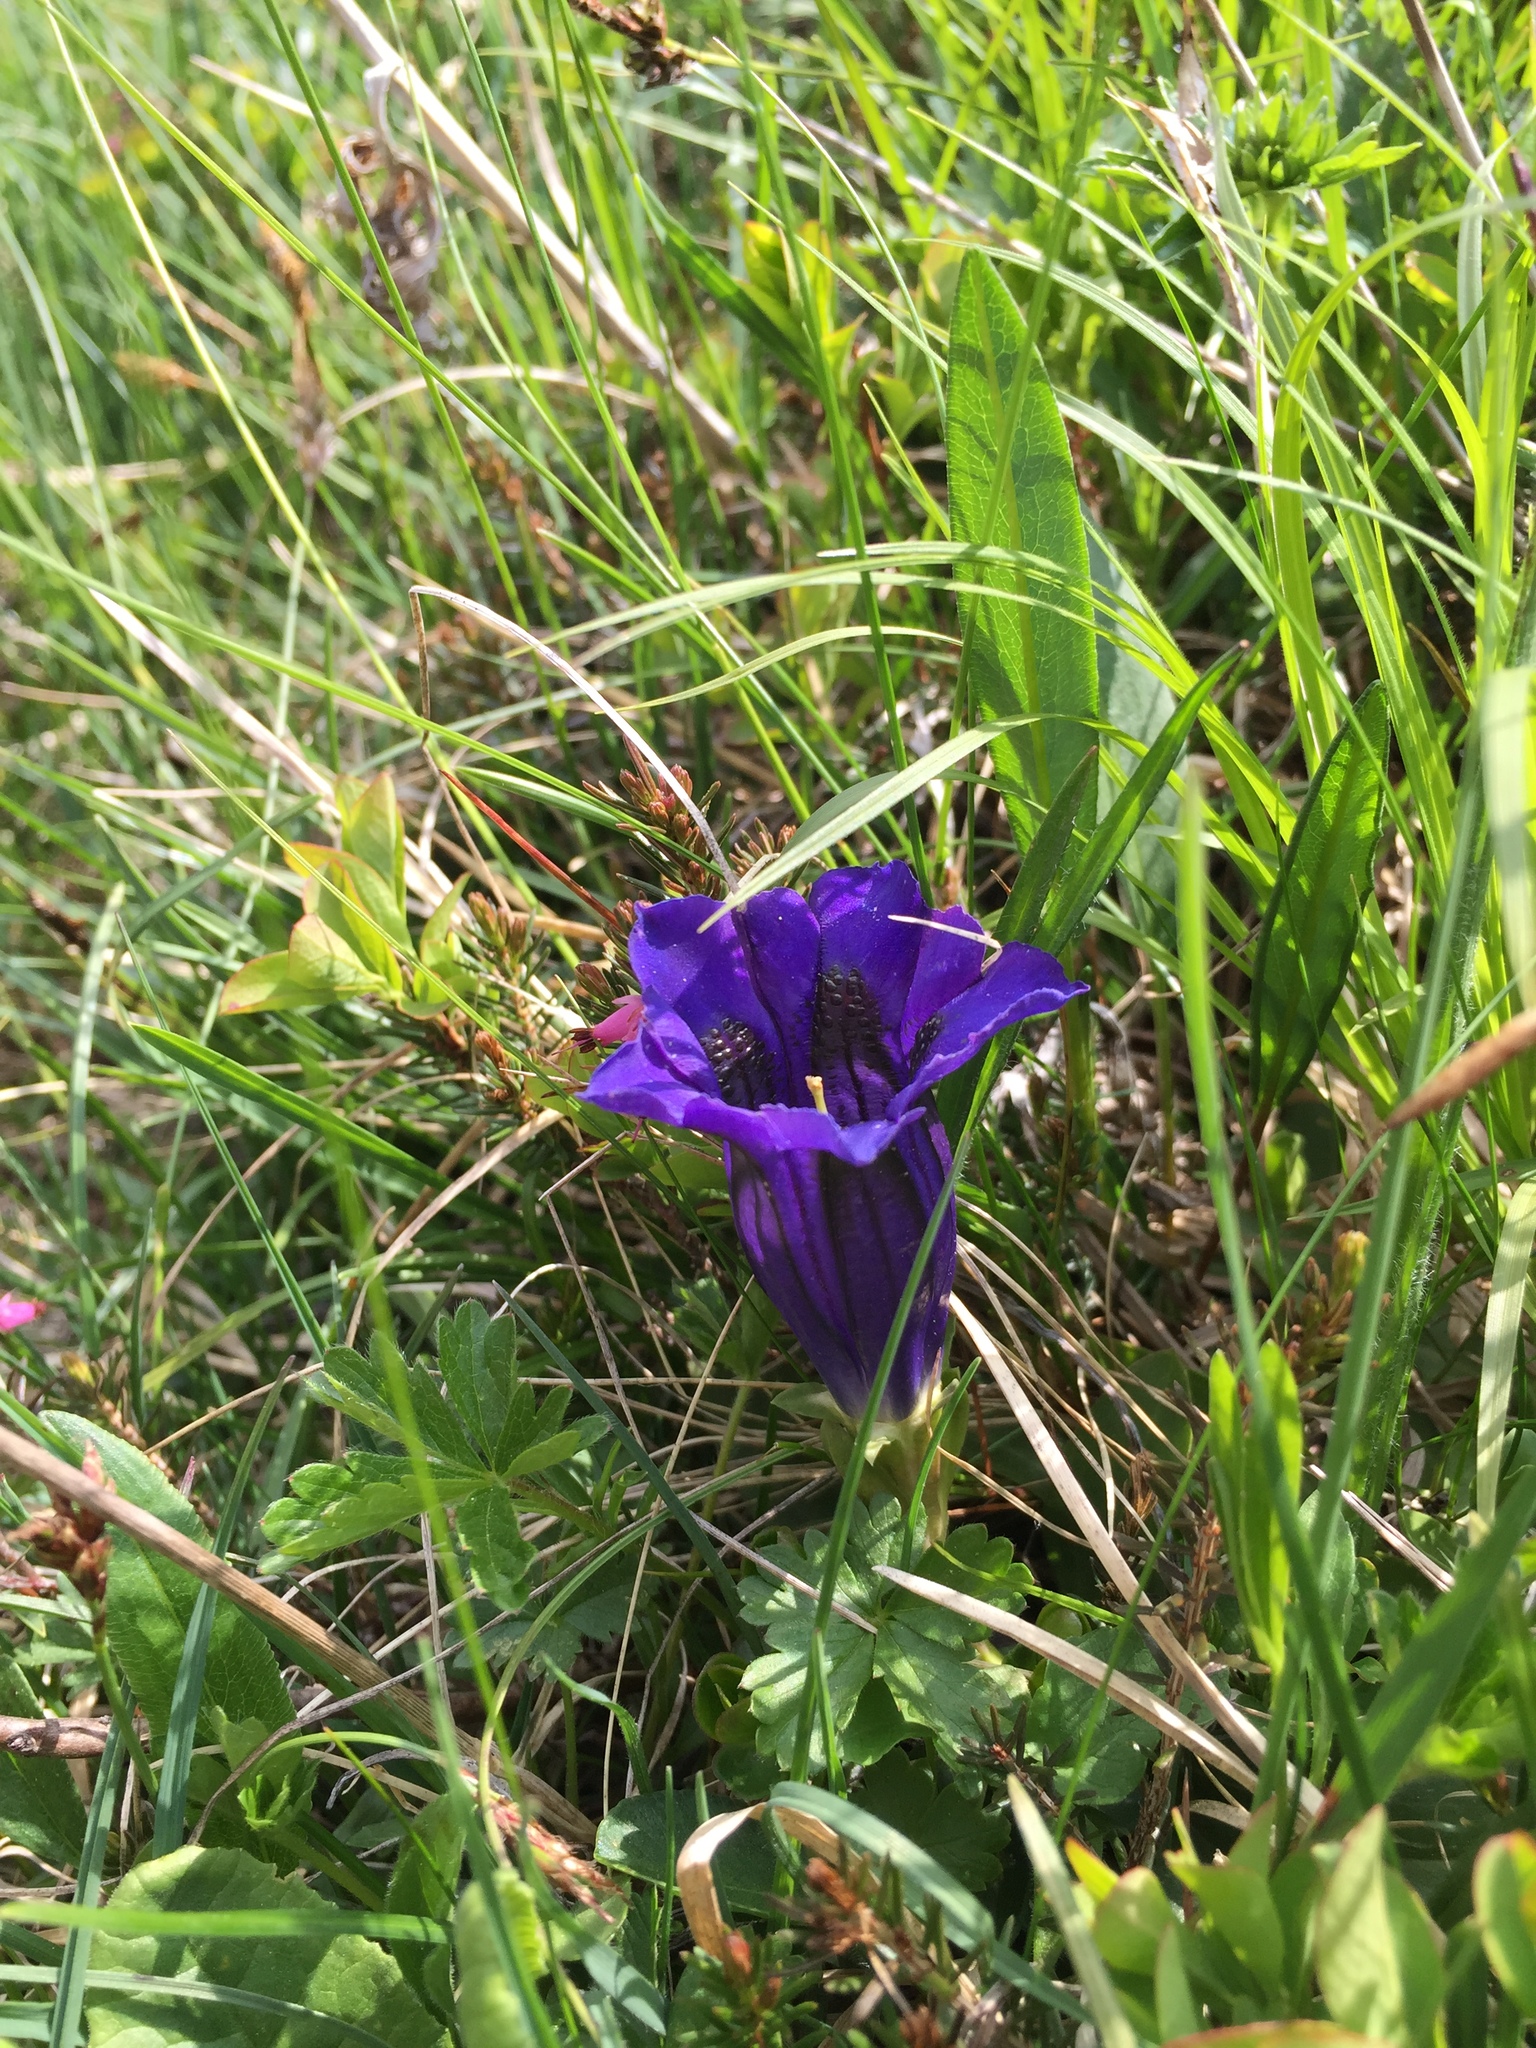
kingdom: Plantae
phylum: Tracheophyta
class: Magnoliopsida
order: Gentianales
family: Gentianaceae
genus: Gentiana
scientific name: Gentiana acaulis
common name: Trumpet gentian
